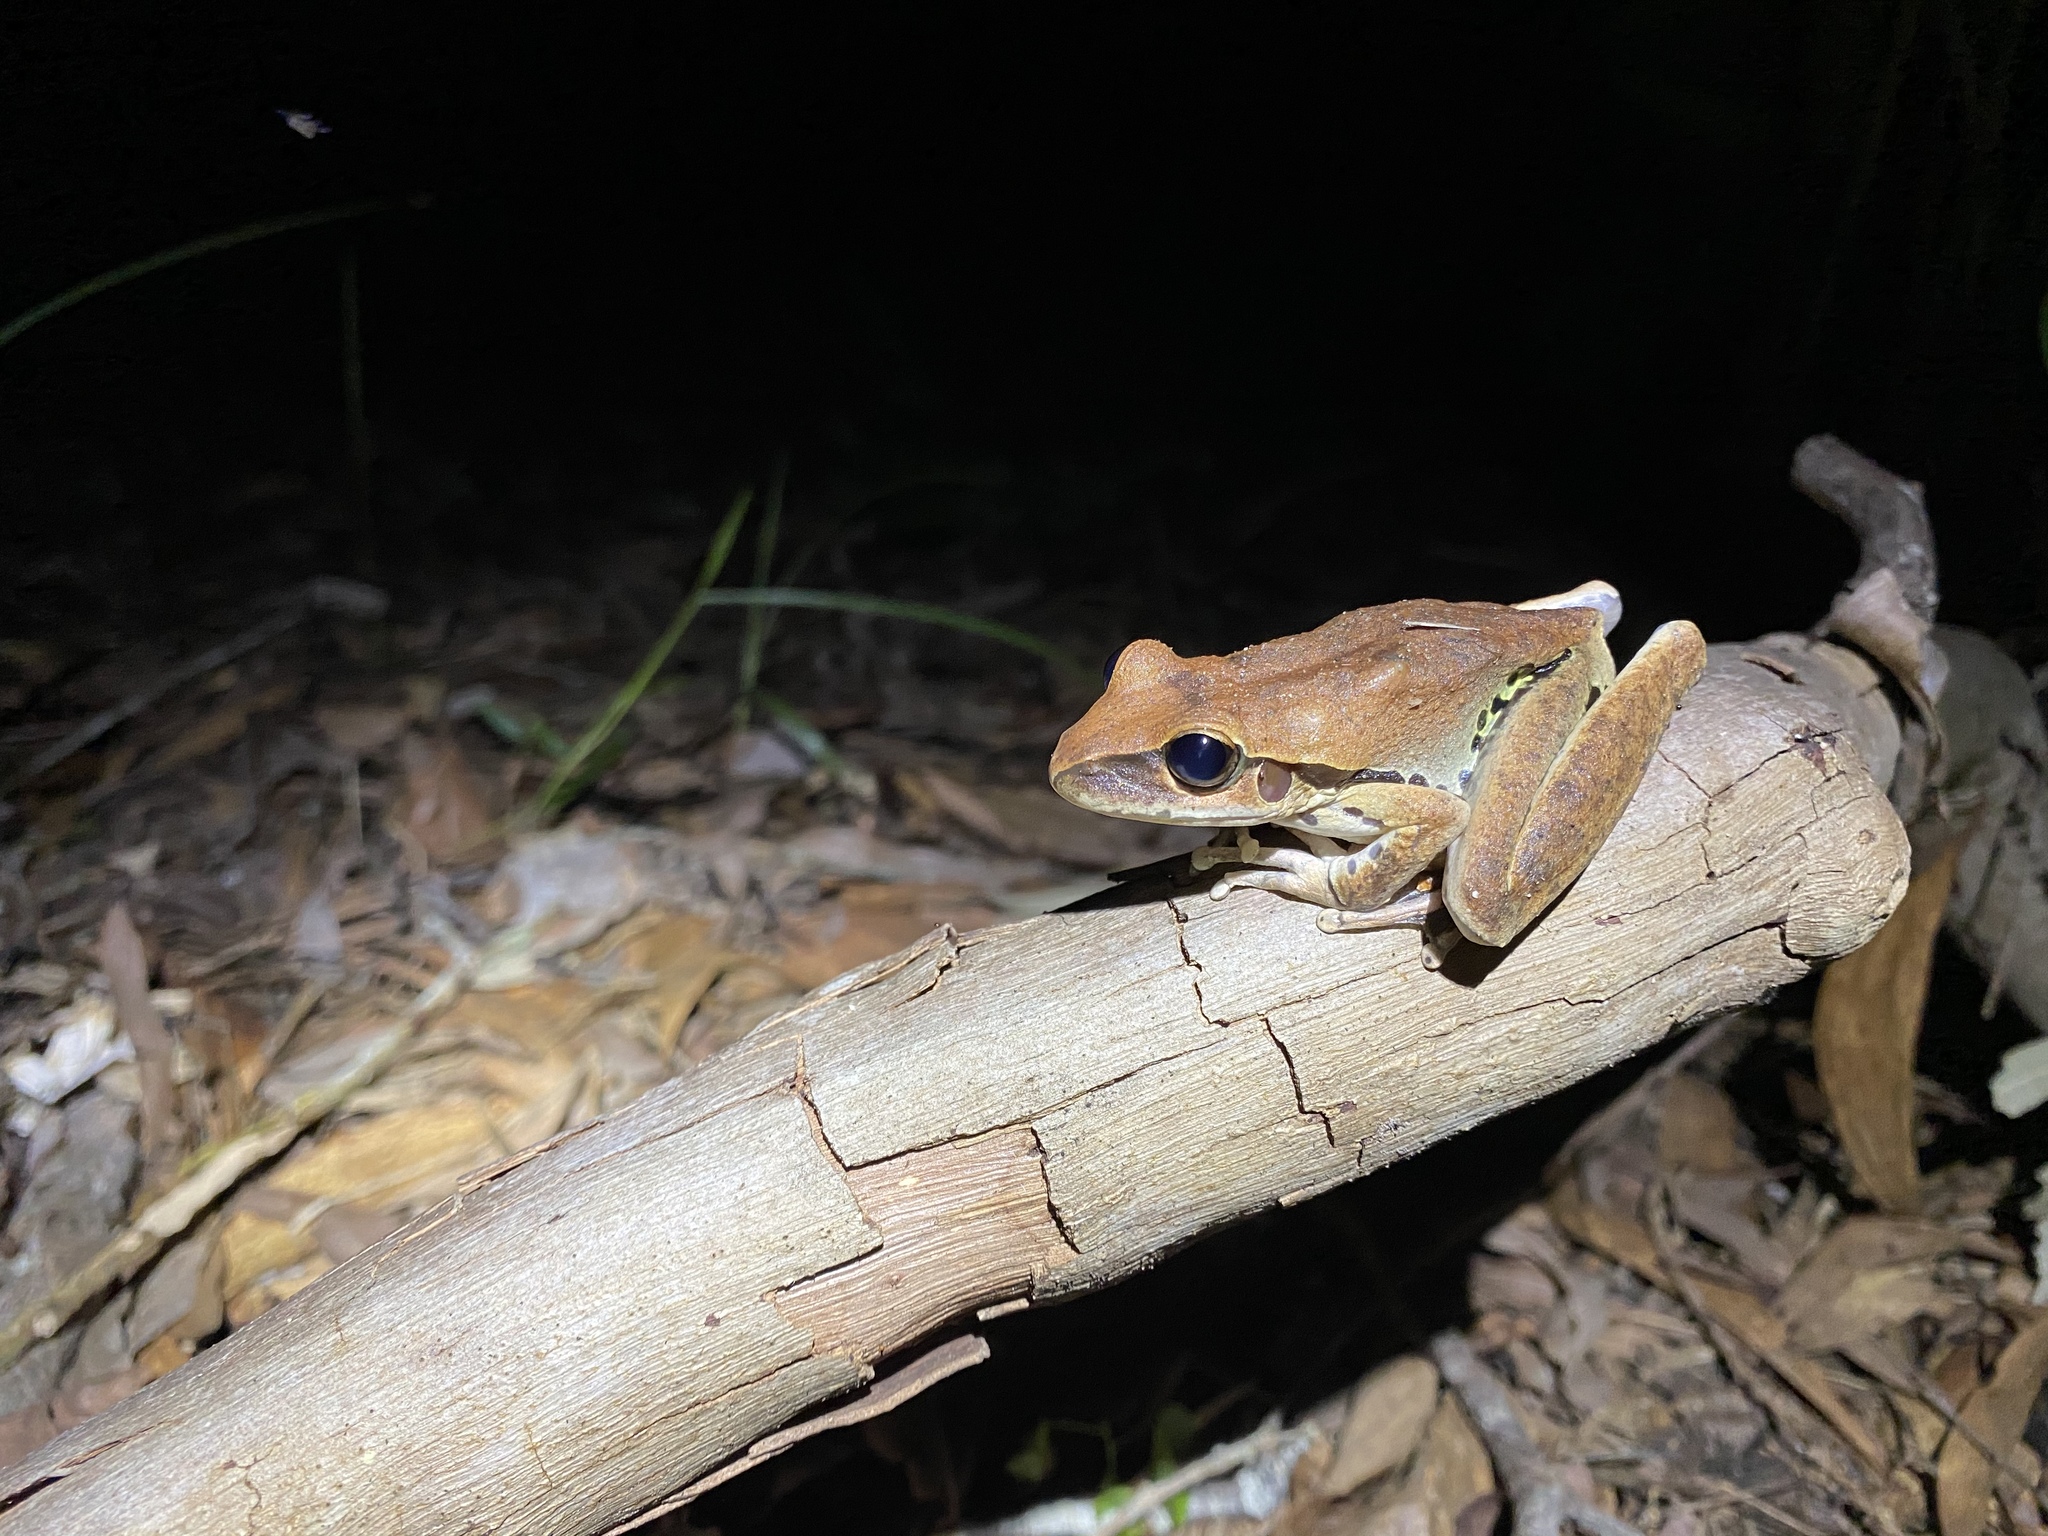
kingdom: Animalia
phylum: Chordata
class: Amphibia
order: Anura
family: Hylidae
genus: Ranoidea
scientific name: Ranoidea
